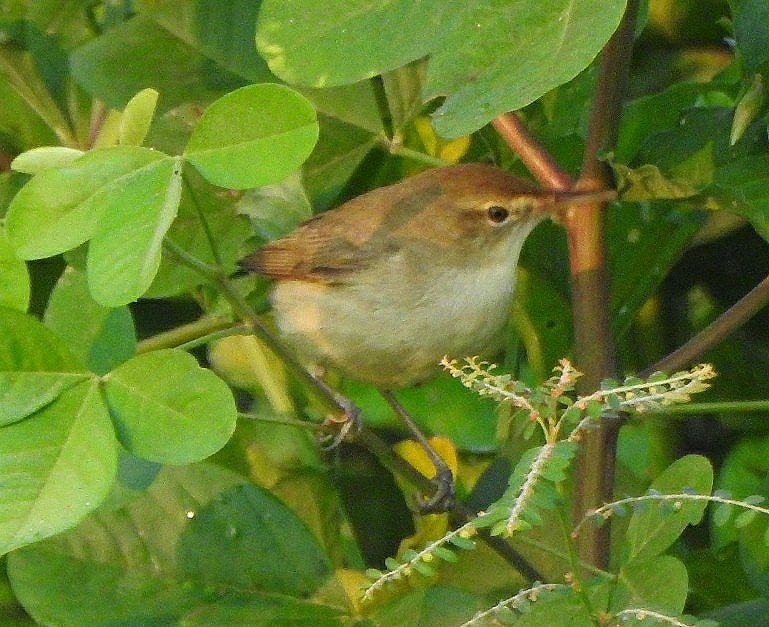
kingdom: Animalia
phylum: Chordata
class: Aves
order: Passeriformes
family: Acrocephalidae
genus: Acrocephalus
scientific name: Acrocephalus dumetorum
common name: Blyth's reed warbler
